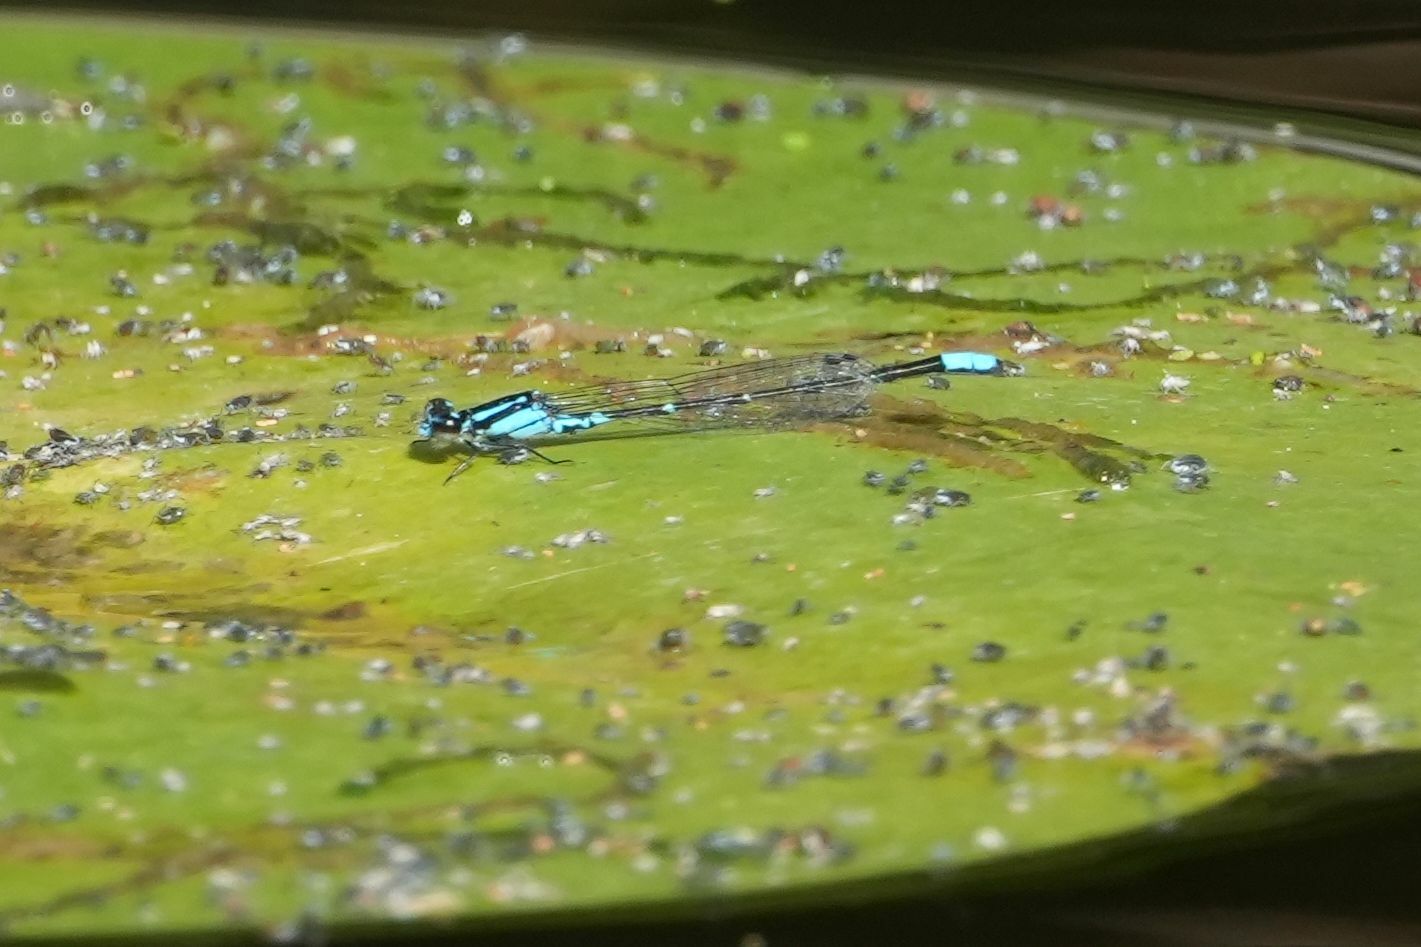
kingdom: Animalia
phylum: Arthropoda
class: Insecta
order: Odonata
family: Coenagrionidae
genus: Enallagma
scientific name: Enallagma geminatum
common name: Skimming bluet
